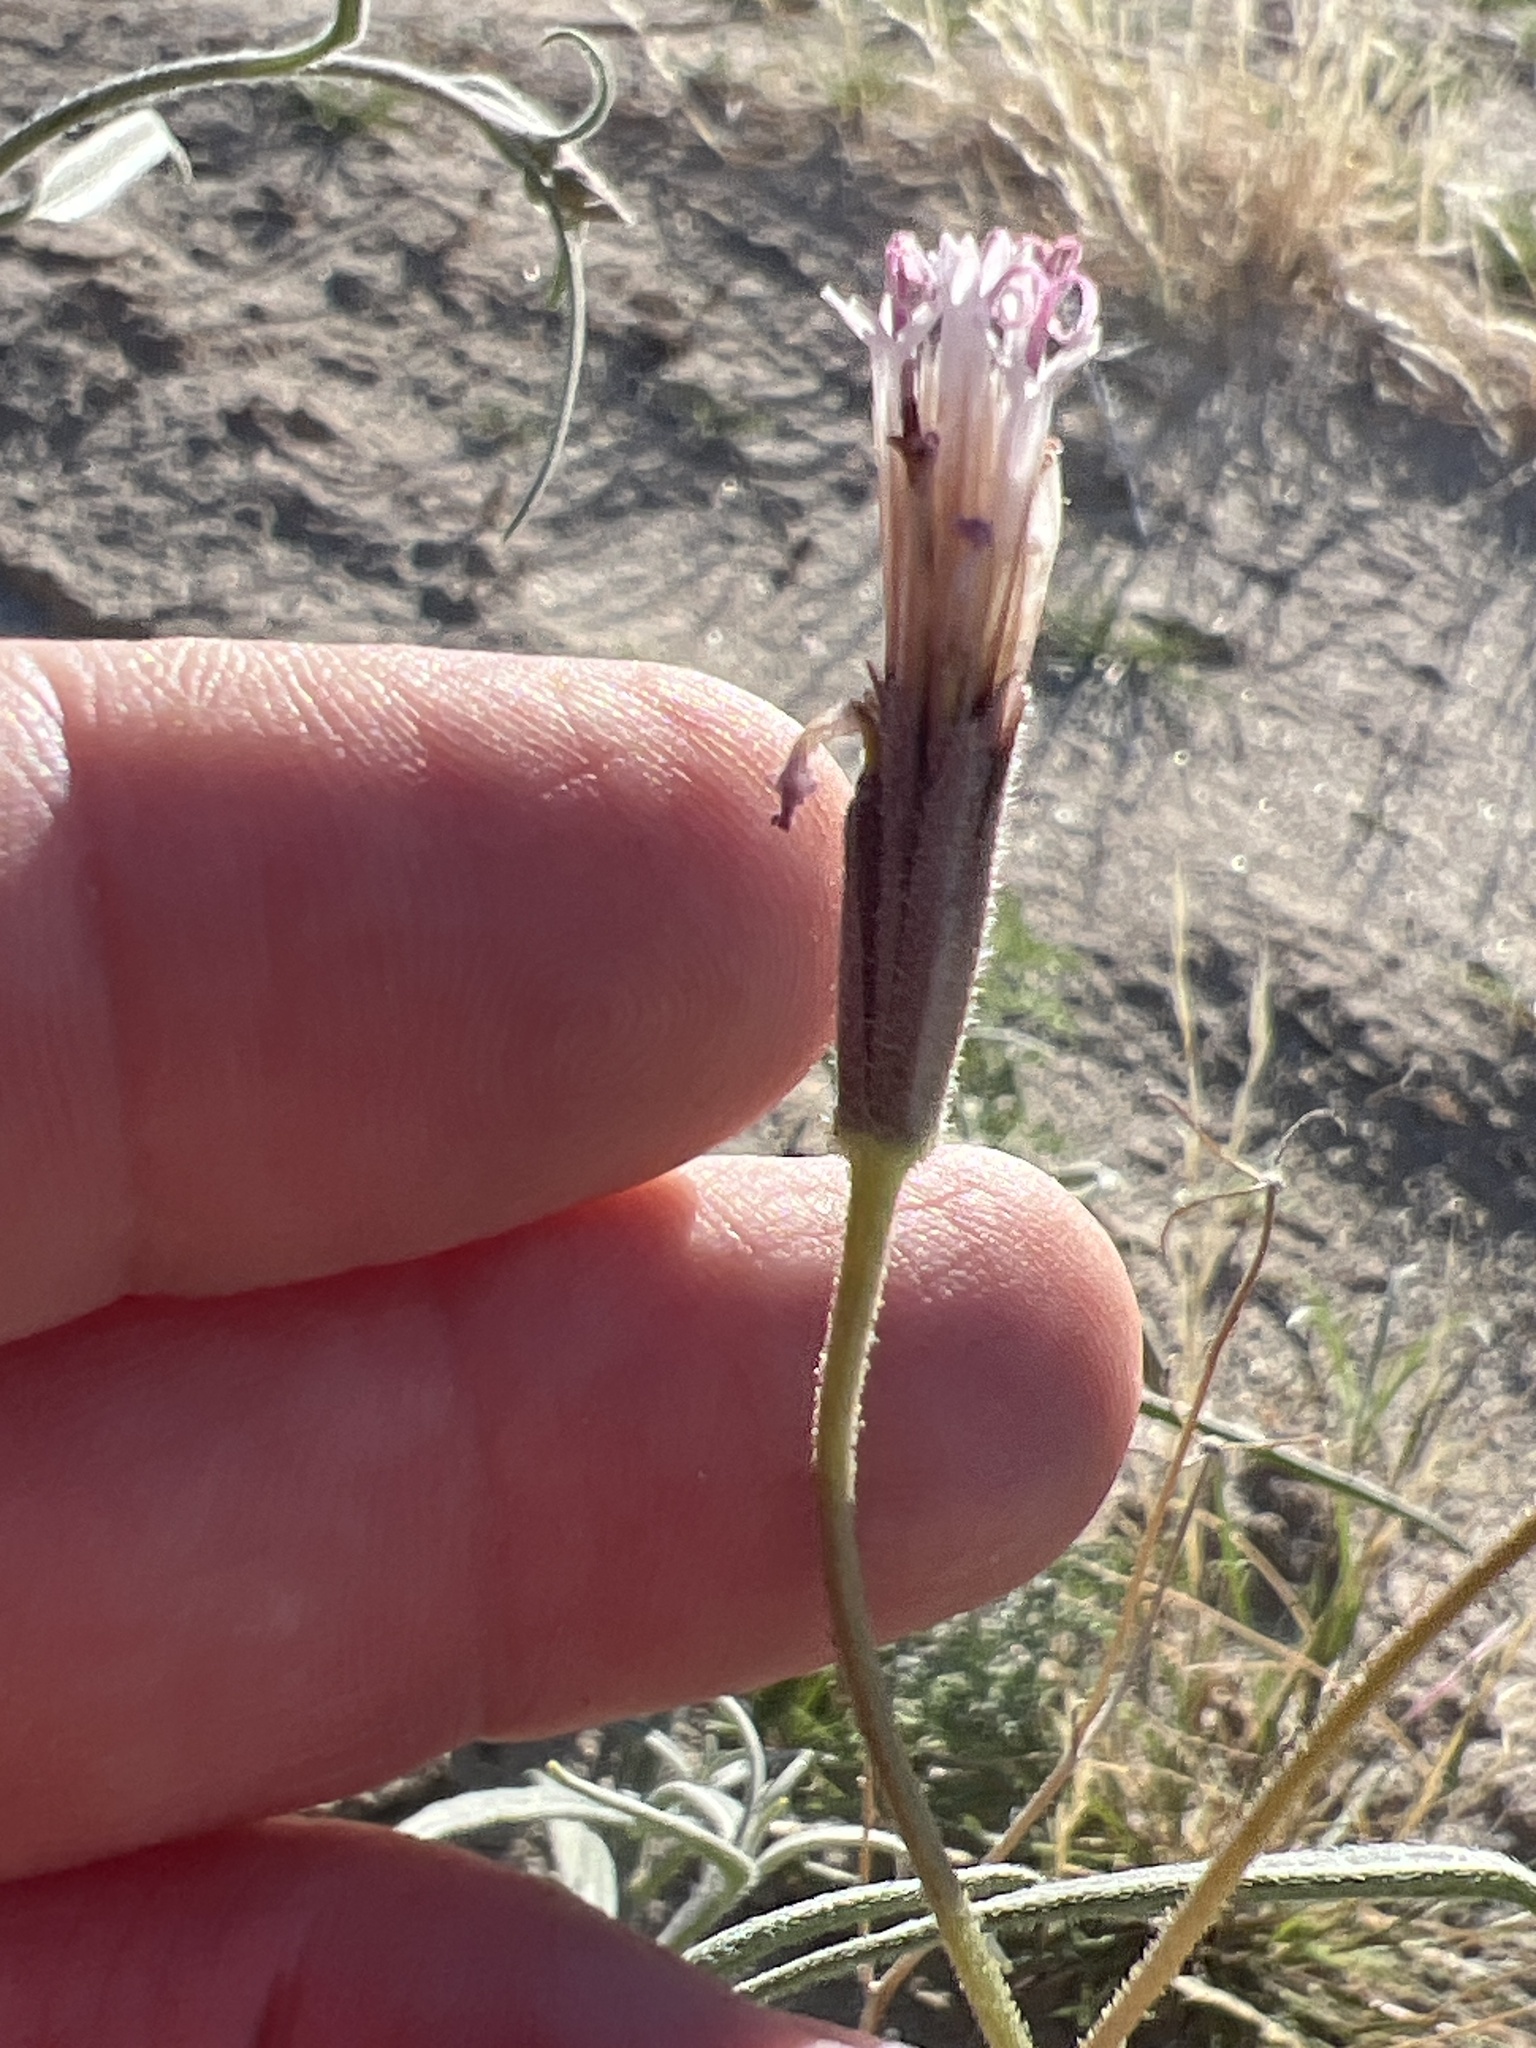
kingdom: Plantae
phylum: Tracheophyta
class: Magnoliopsida
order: Asterales
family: Asteraceae
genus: Palafoxia
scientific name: Palafoxia arida
